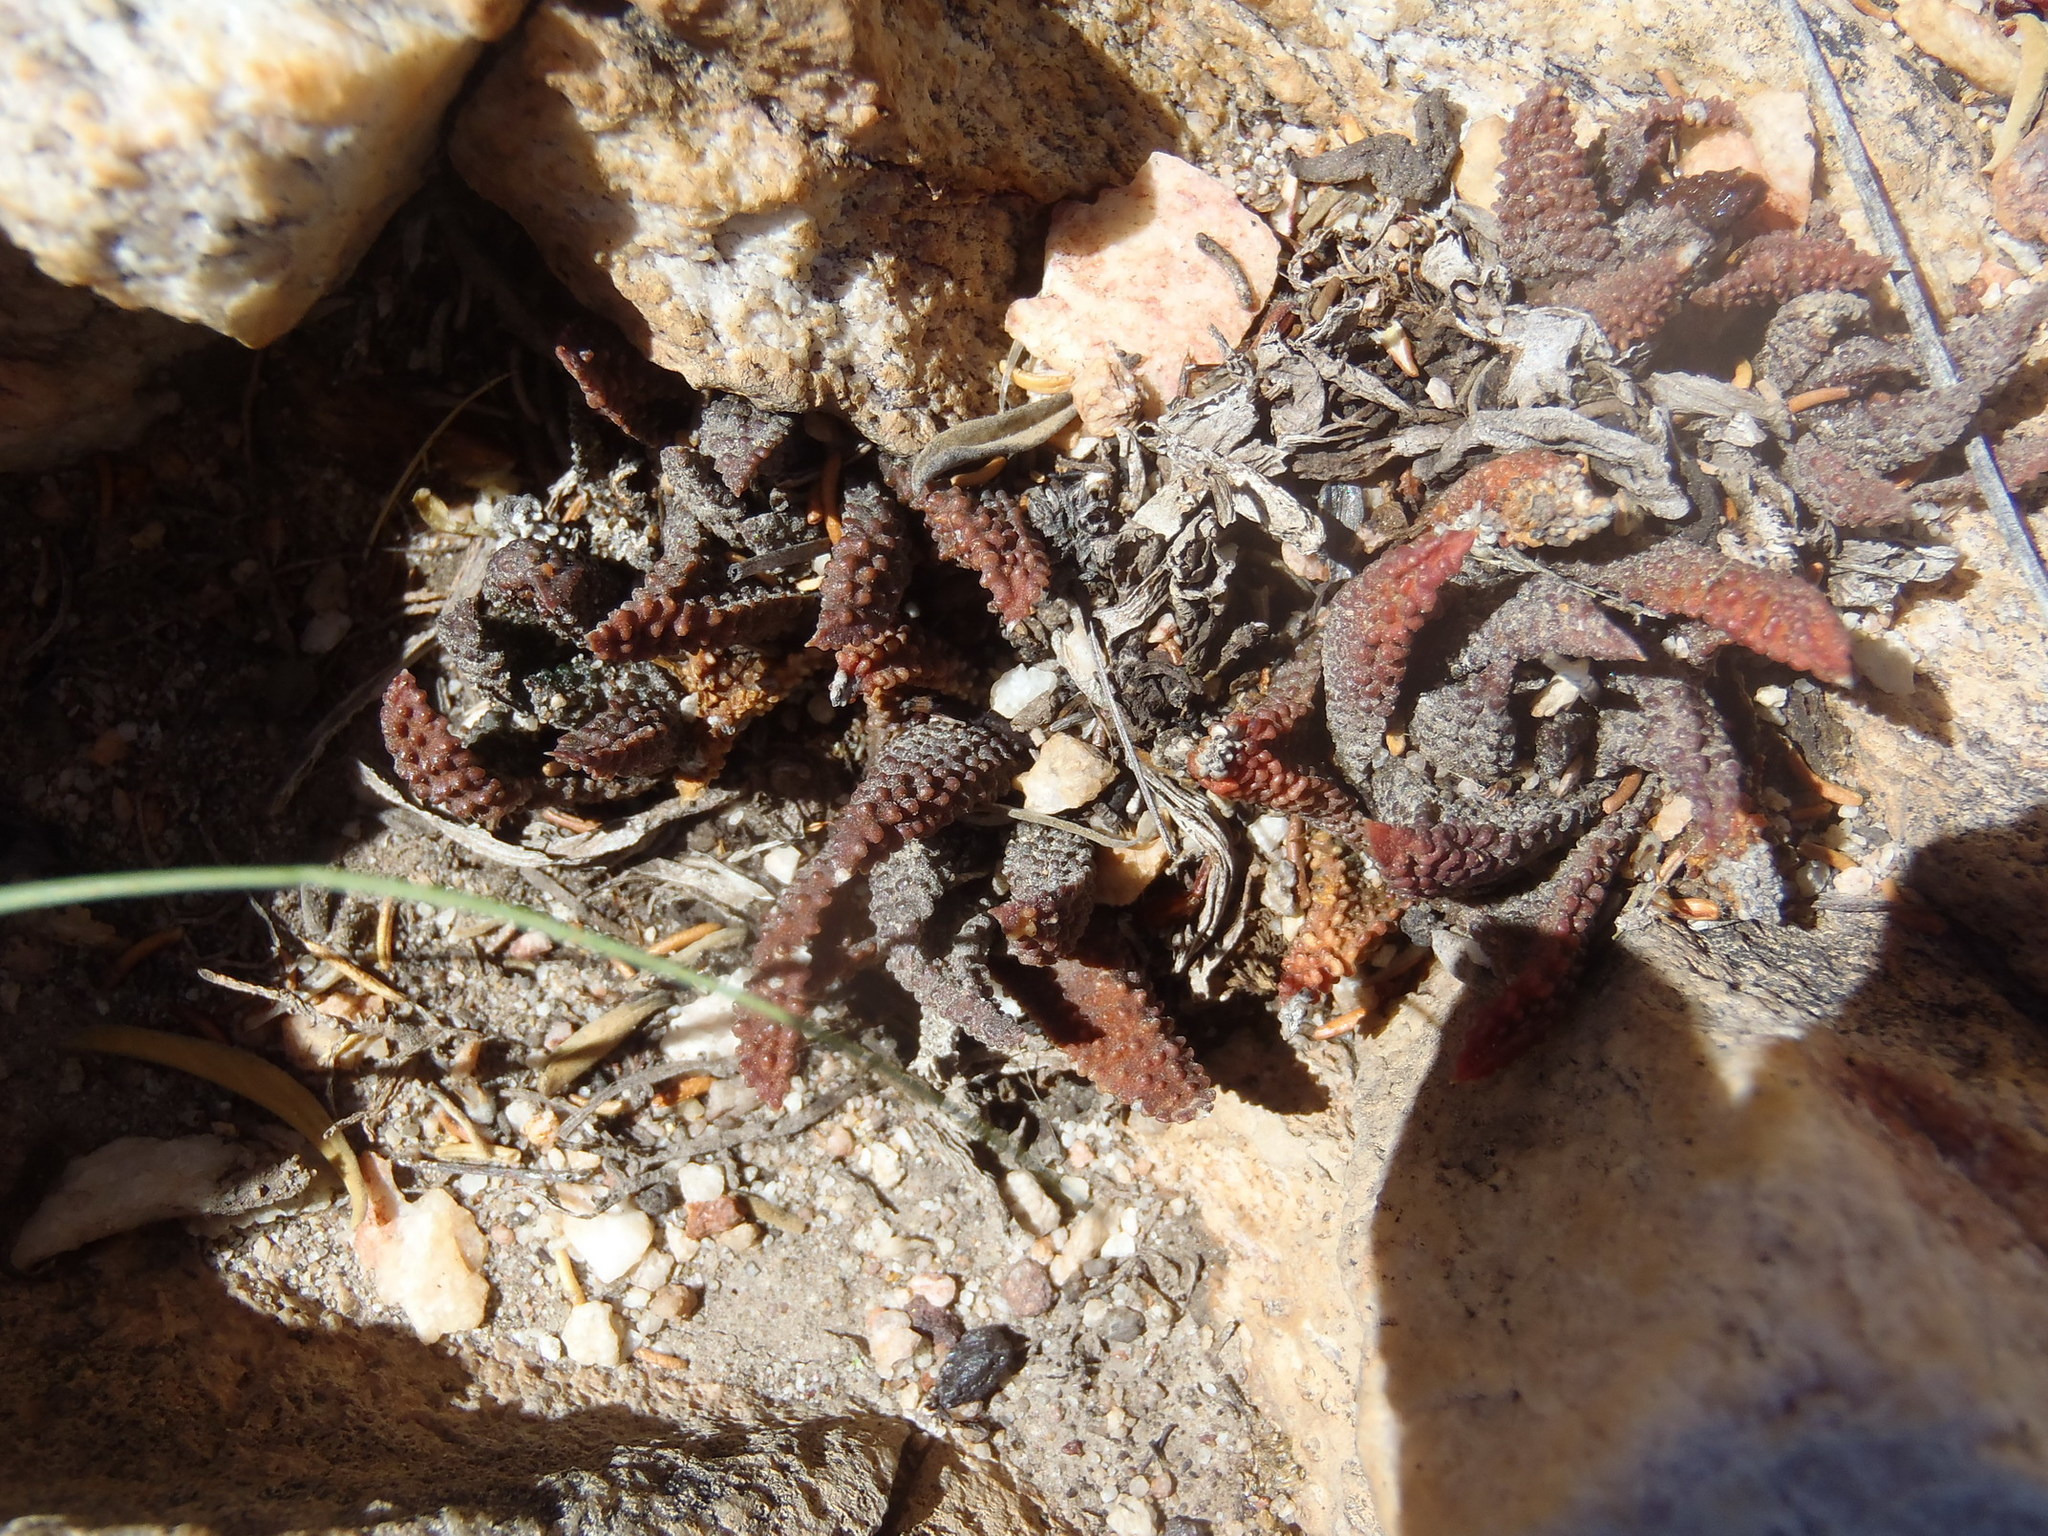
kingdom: Plantae
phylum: Tracheophyta
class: Liliopsida
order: Asparagales
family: Asphodelaceae
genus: Haworthiopsis
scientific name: Haworthiopsis scabra
